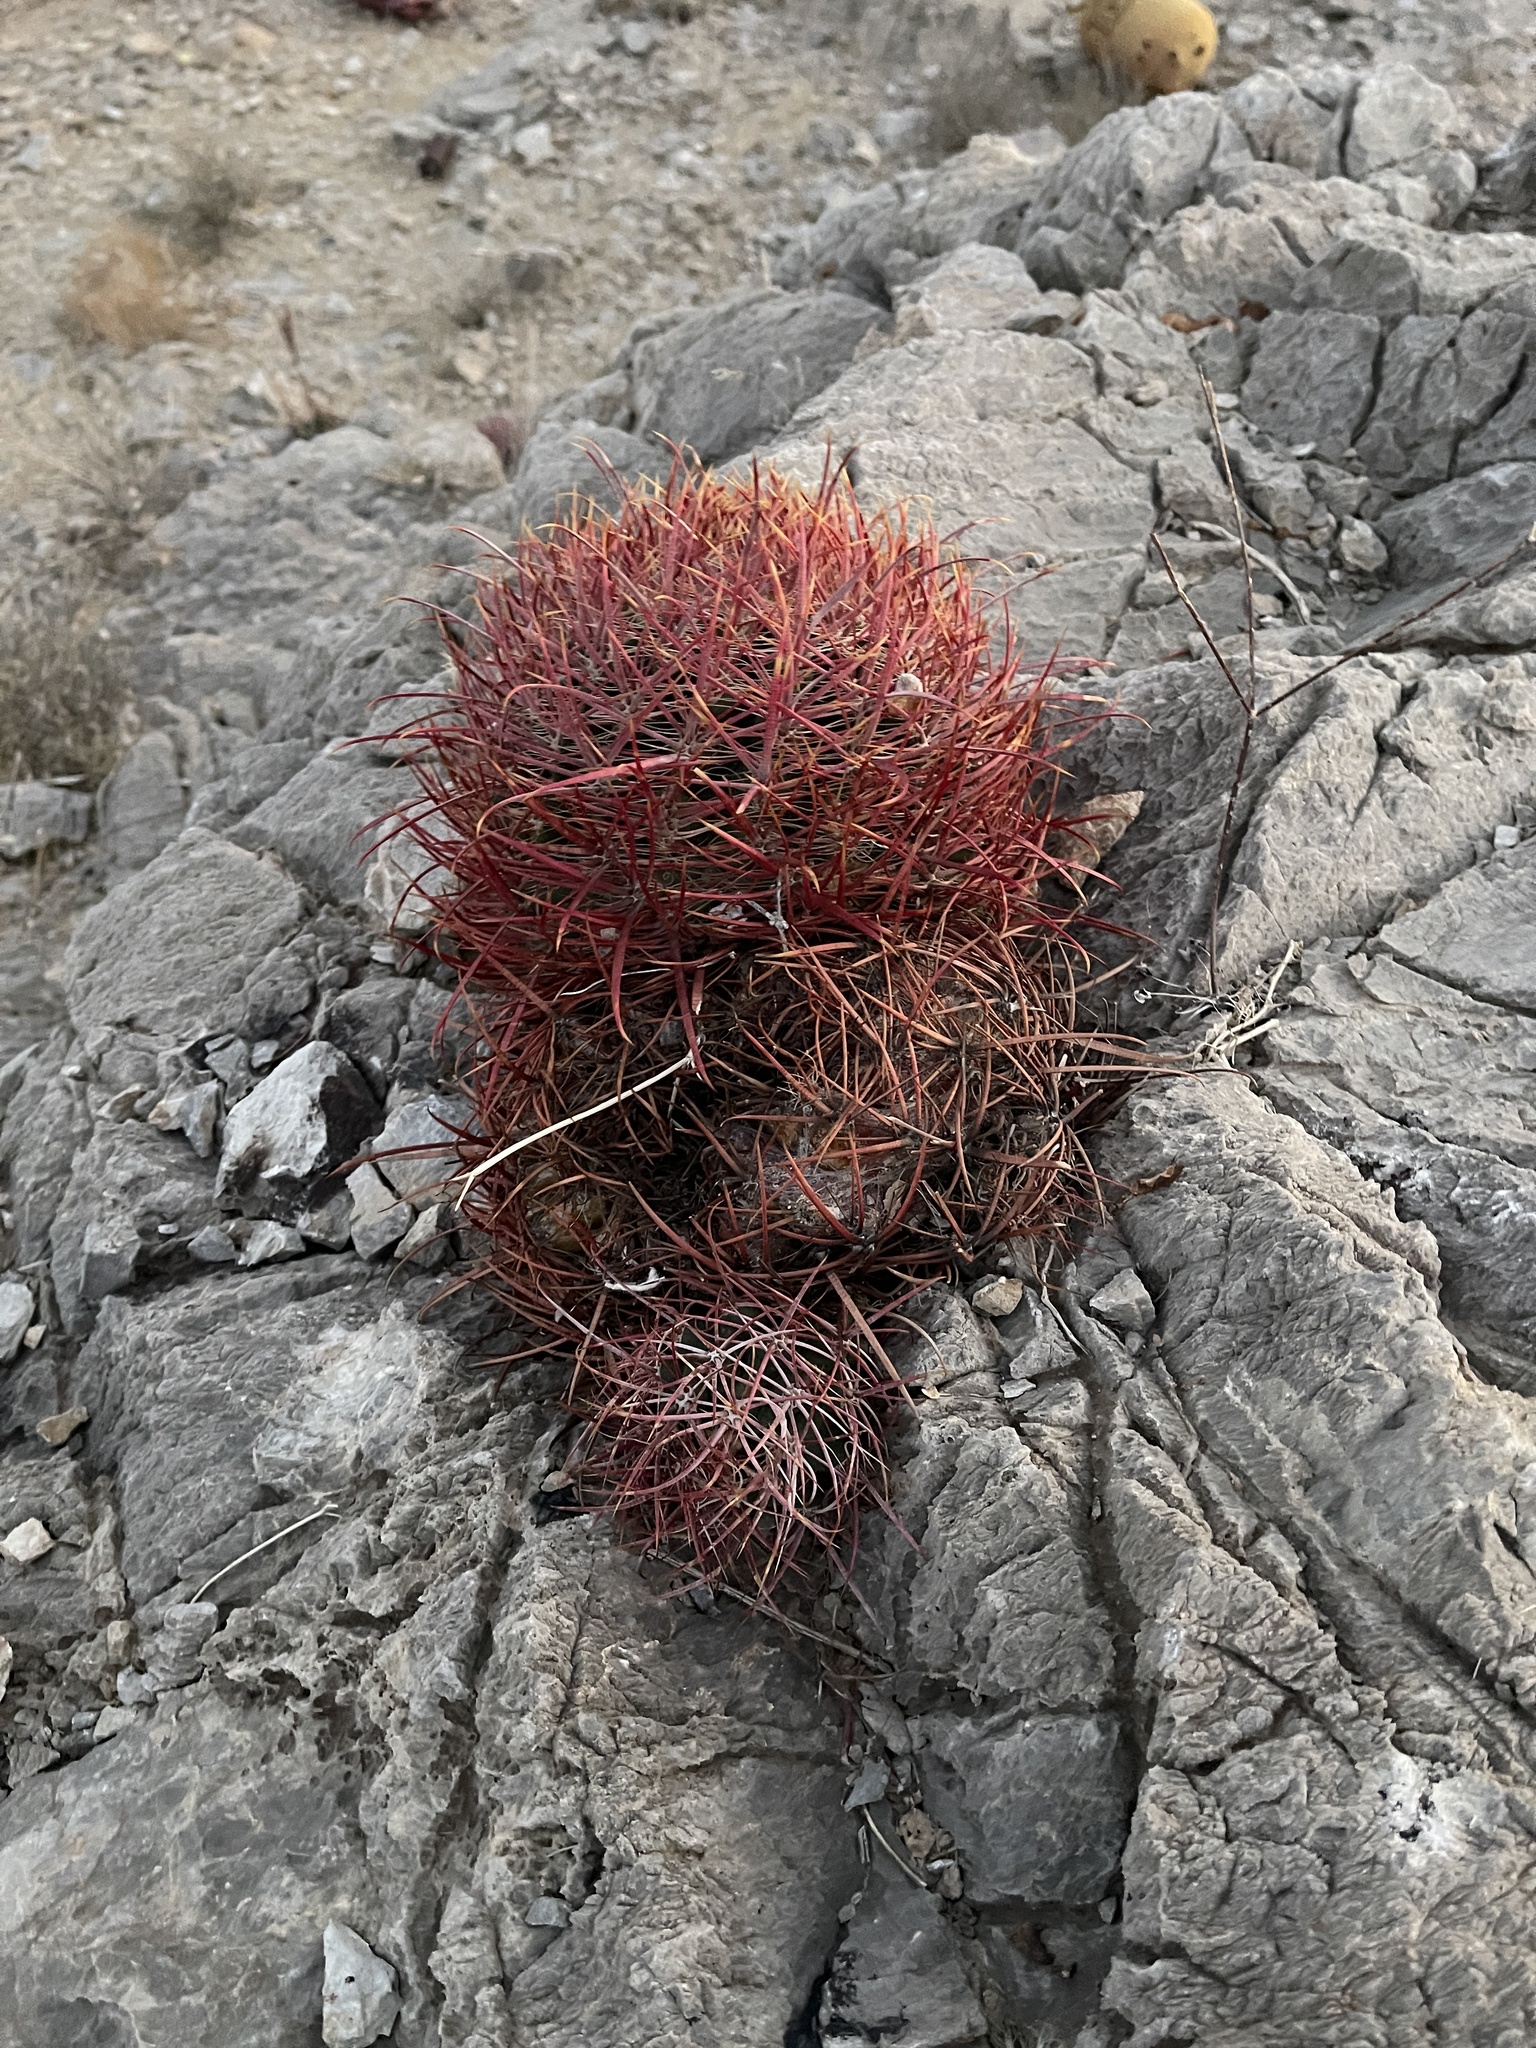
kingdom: Plantae
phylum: Tracheophyta
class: Magnoliopsida
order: Caryophyllales
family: Cactaceae
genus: Ferocactus
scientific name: Ferocactus cylindraceus
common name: California barrel cactus
